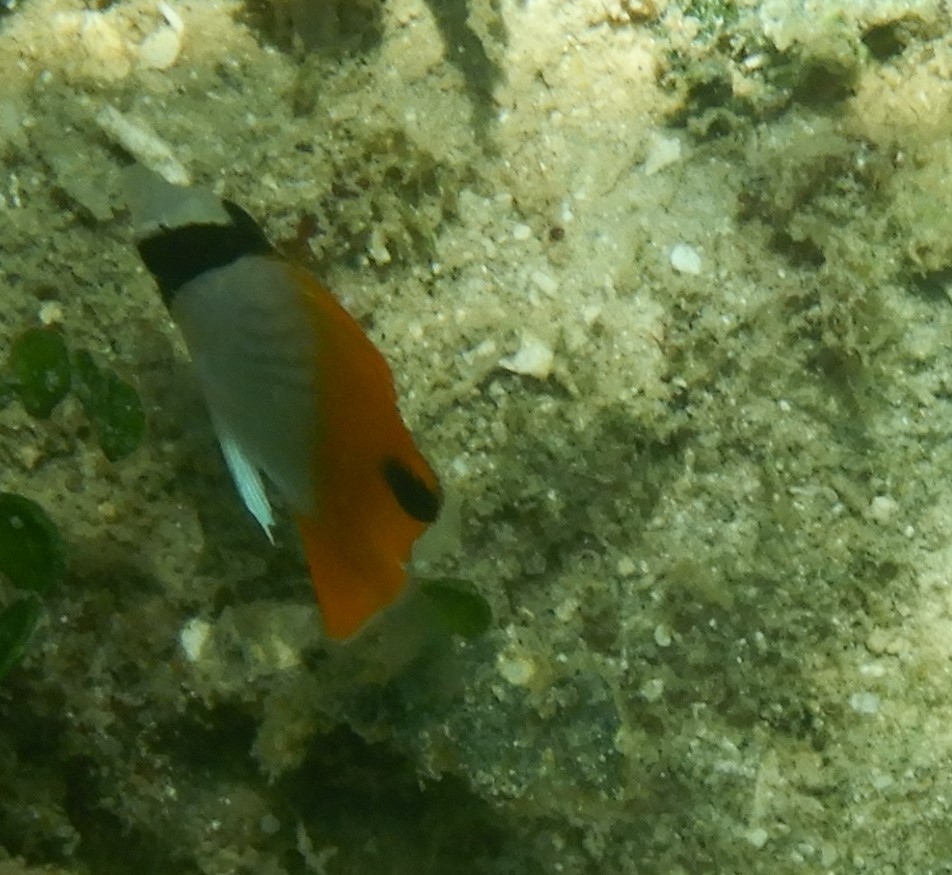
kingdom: Animalia
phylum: Chordata
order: Perciformes
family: Chaetodontidae
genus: Chaetodon
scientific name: Chaetodon auriga
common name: Threadfin butterflyfish
